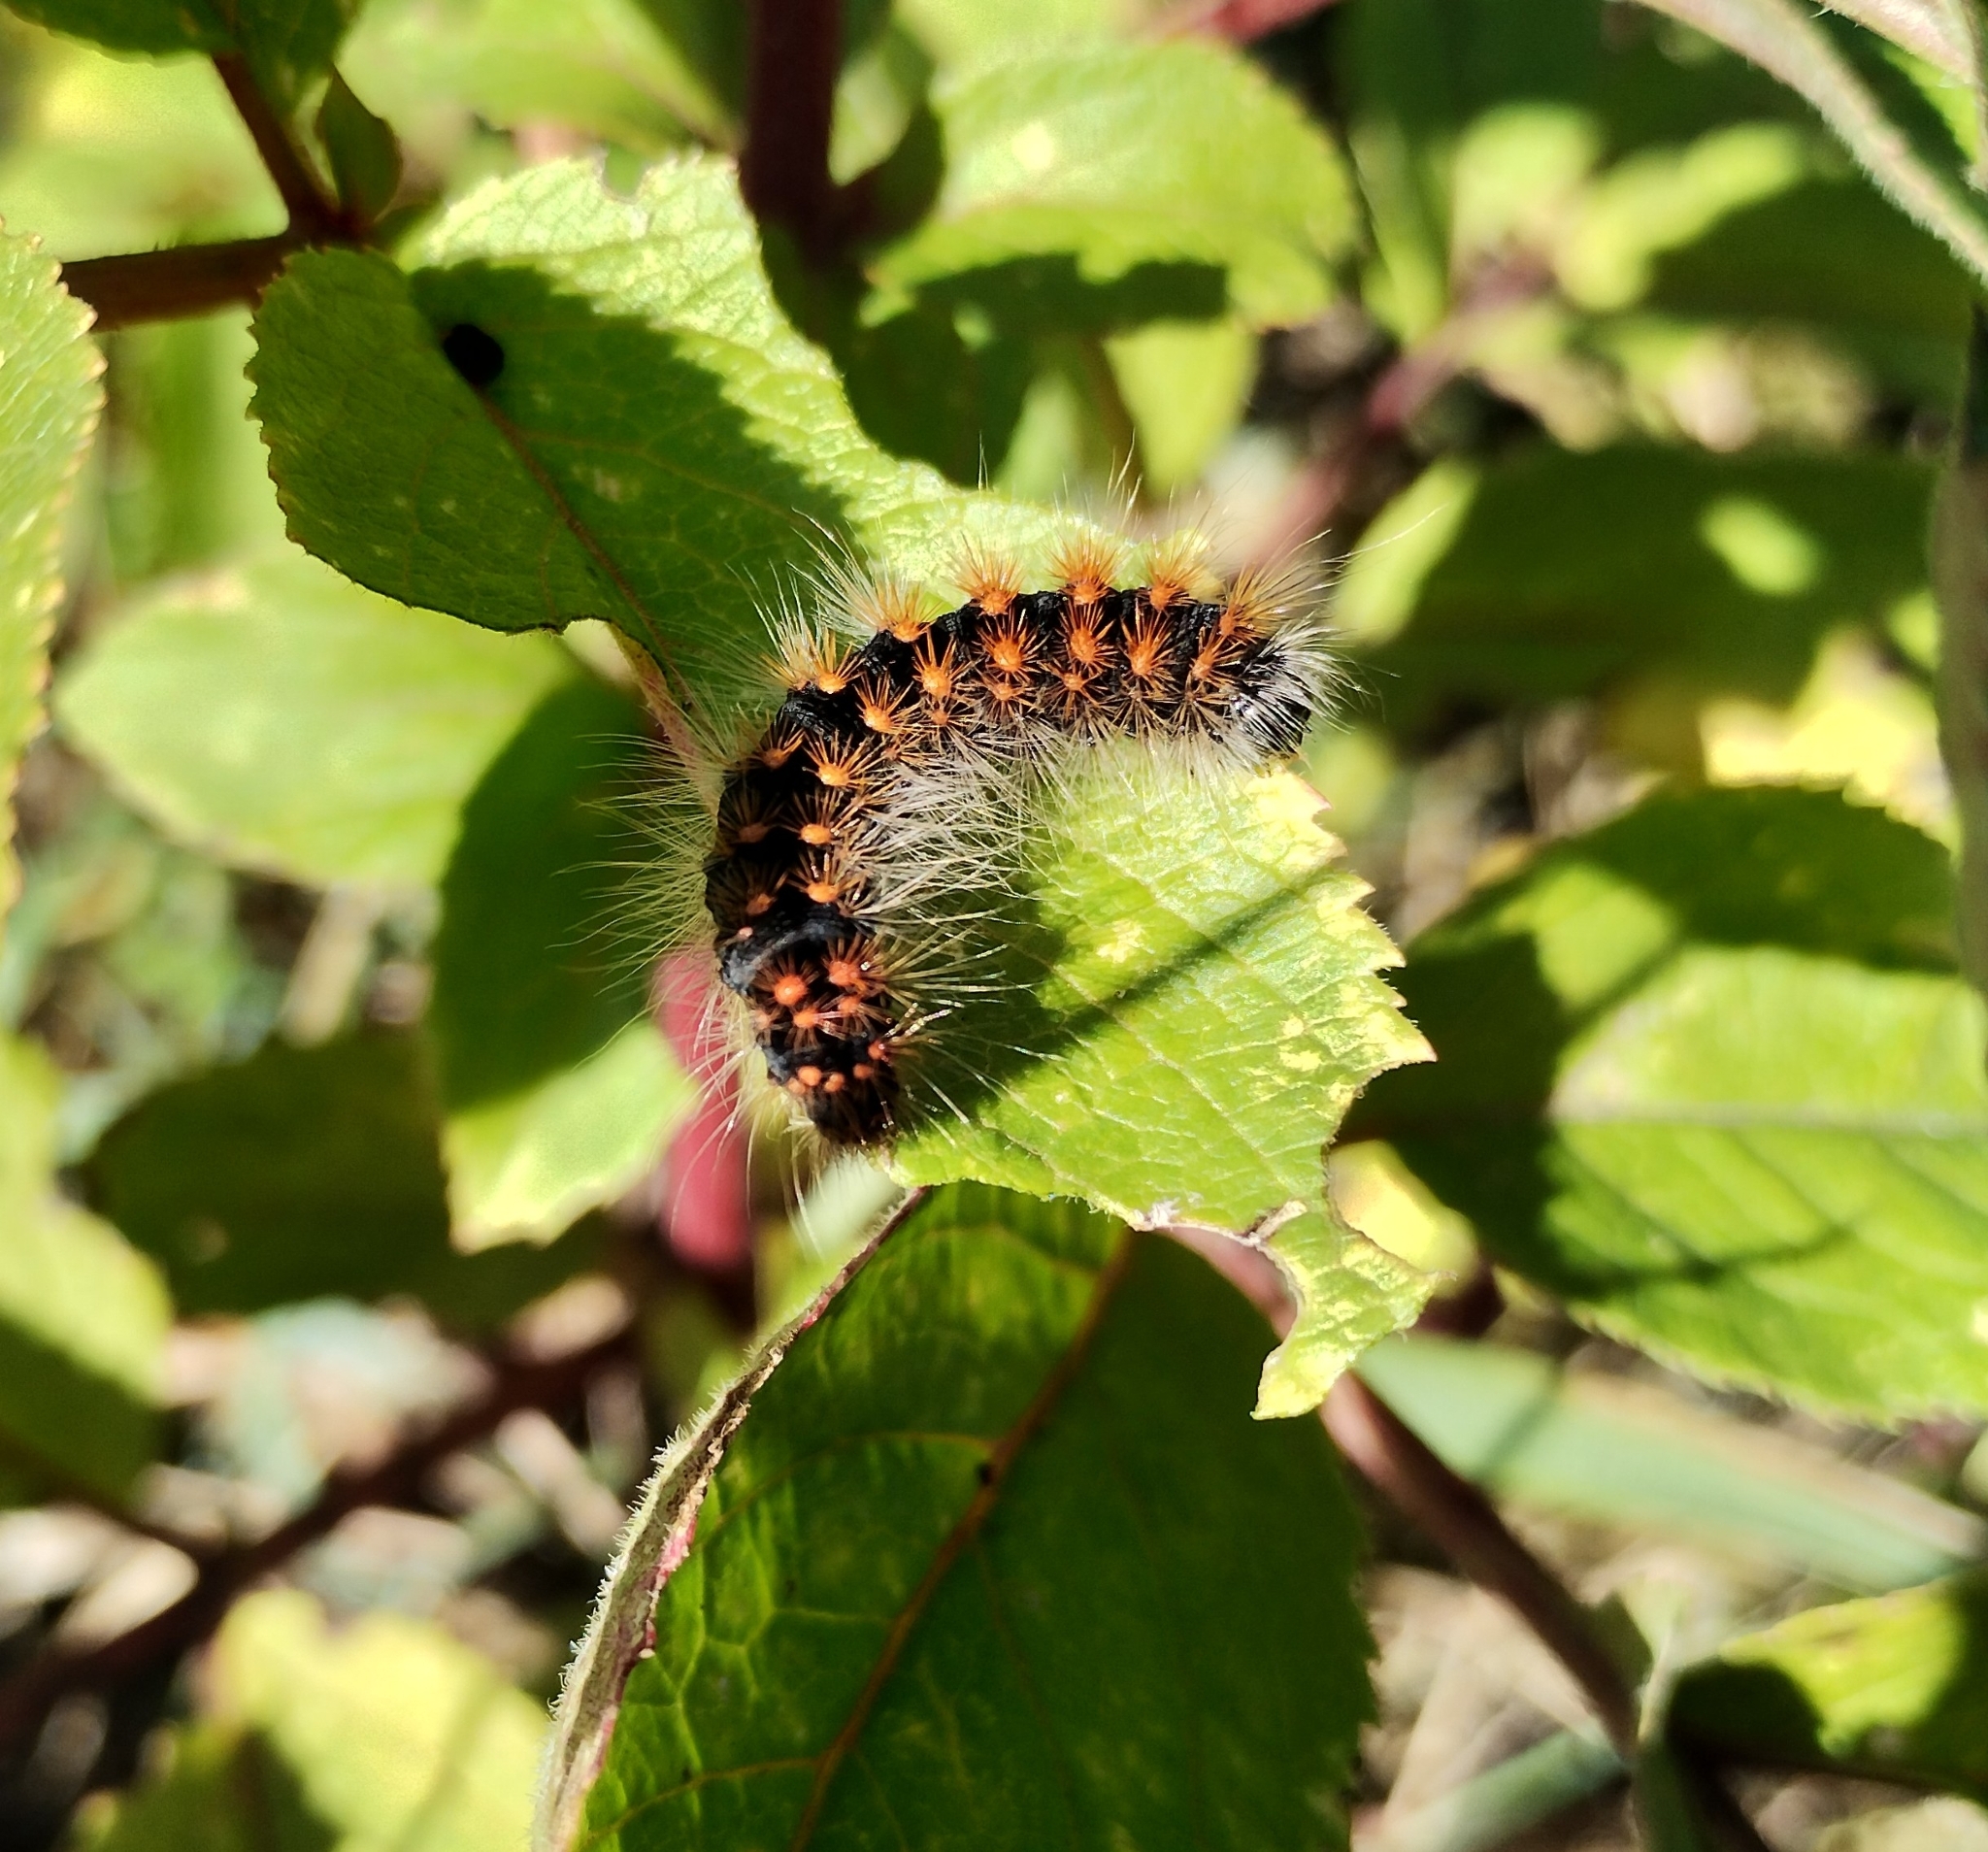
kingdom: Animalia
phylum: Arthropoda
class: Insecta
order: Lepidoptera
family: Noctuidae
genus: Acronicta
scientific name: Acronicta auricoma
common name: Scarce dagger
